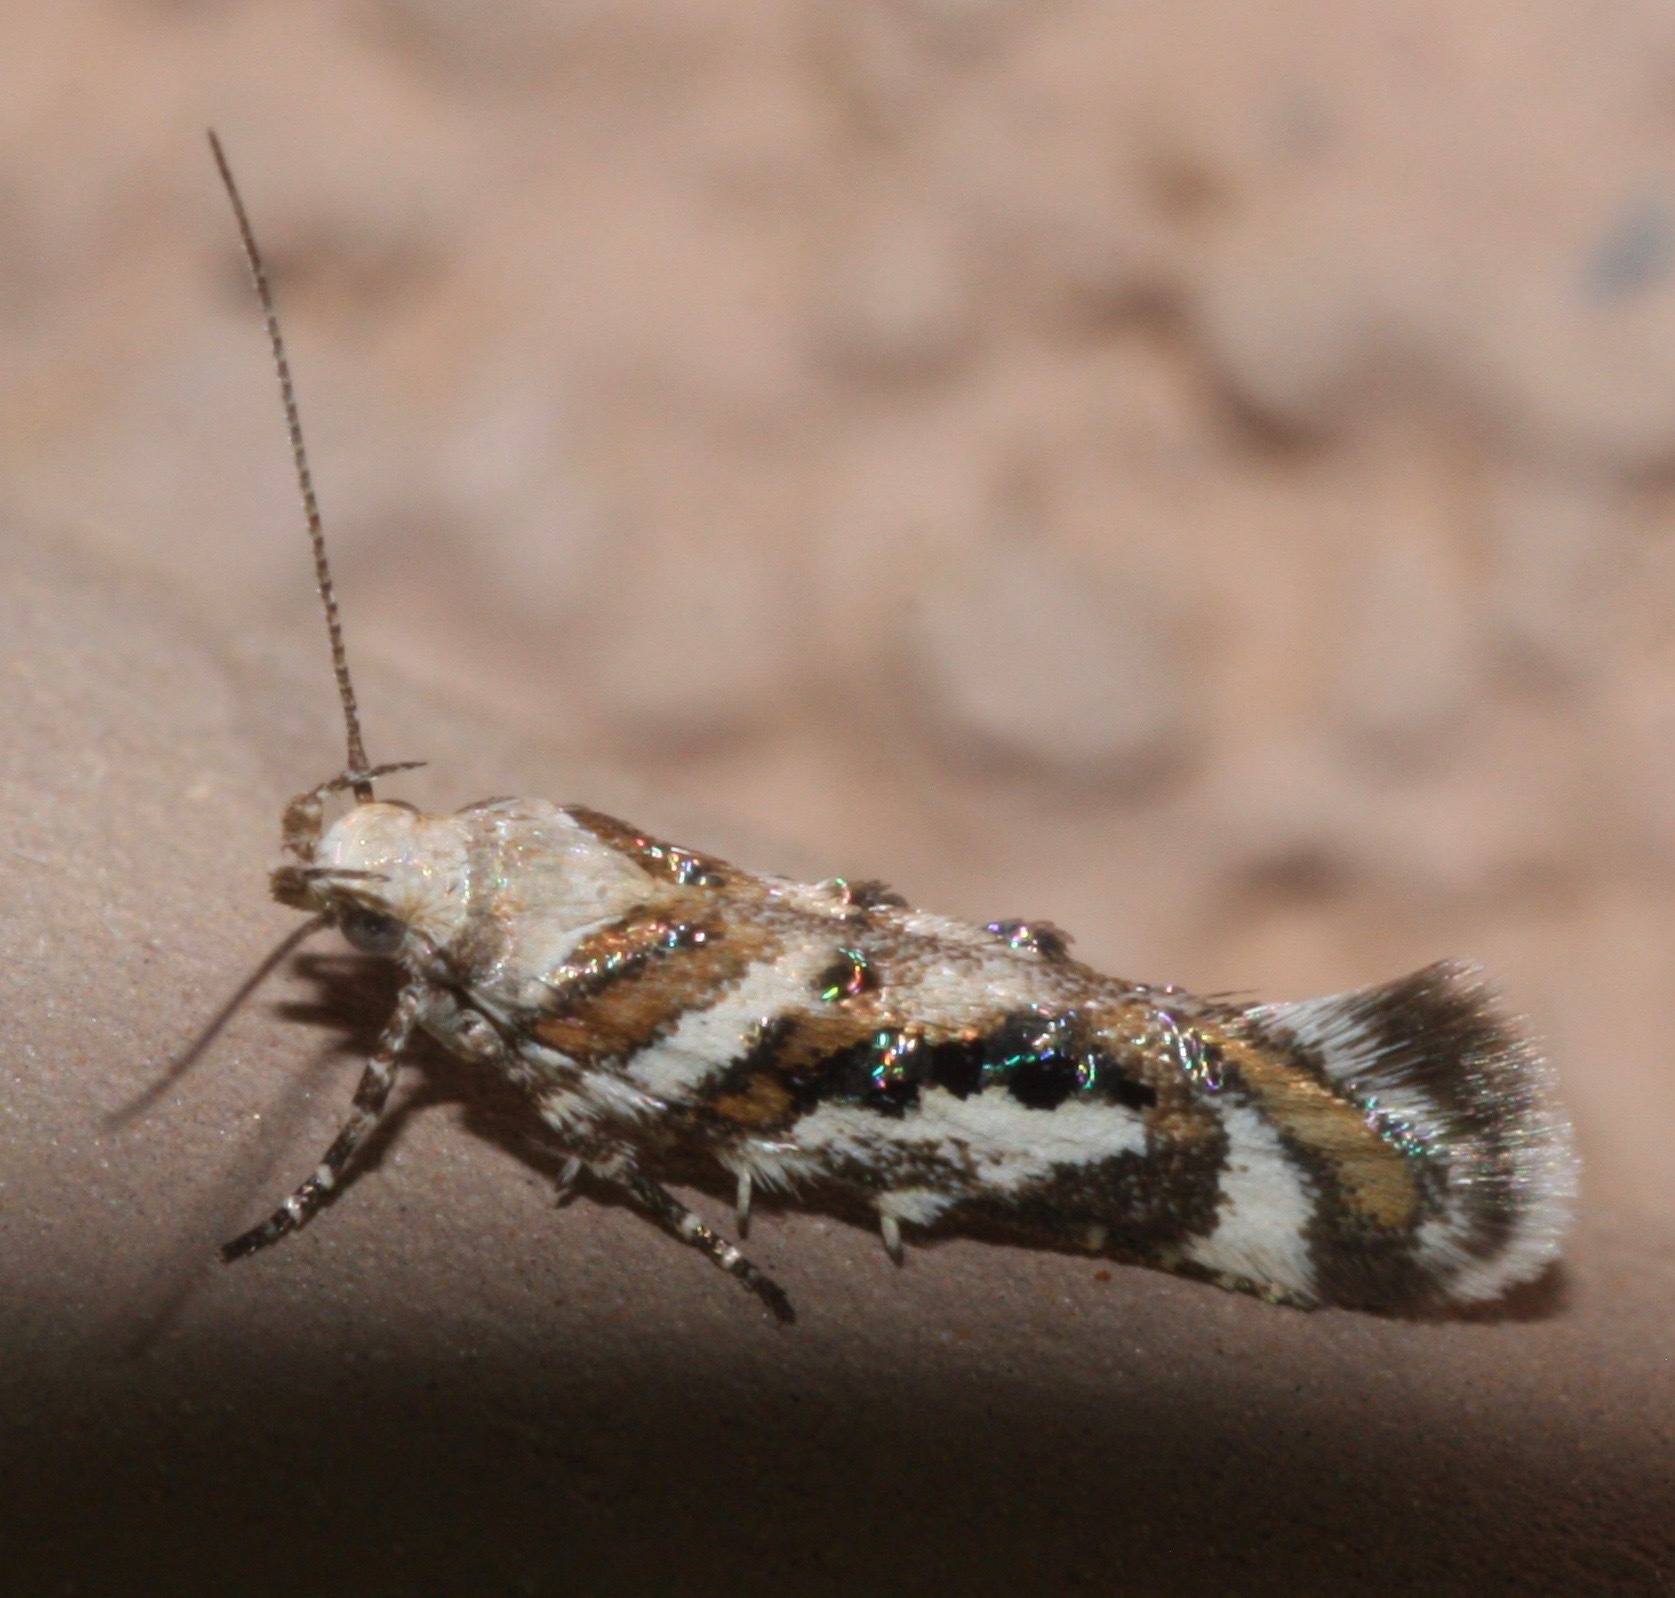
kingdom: Animalia
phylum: Arthropoda
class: Insecta
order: Lepidoptera
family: Gelechiidae
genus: Aristotelia
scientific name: Aristotelia elegantella
